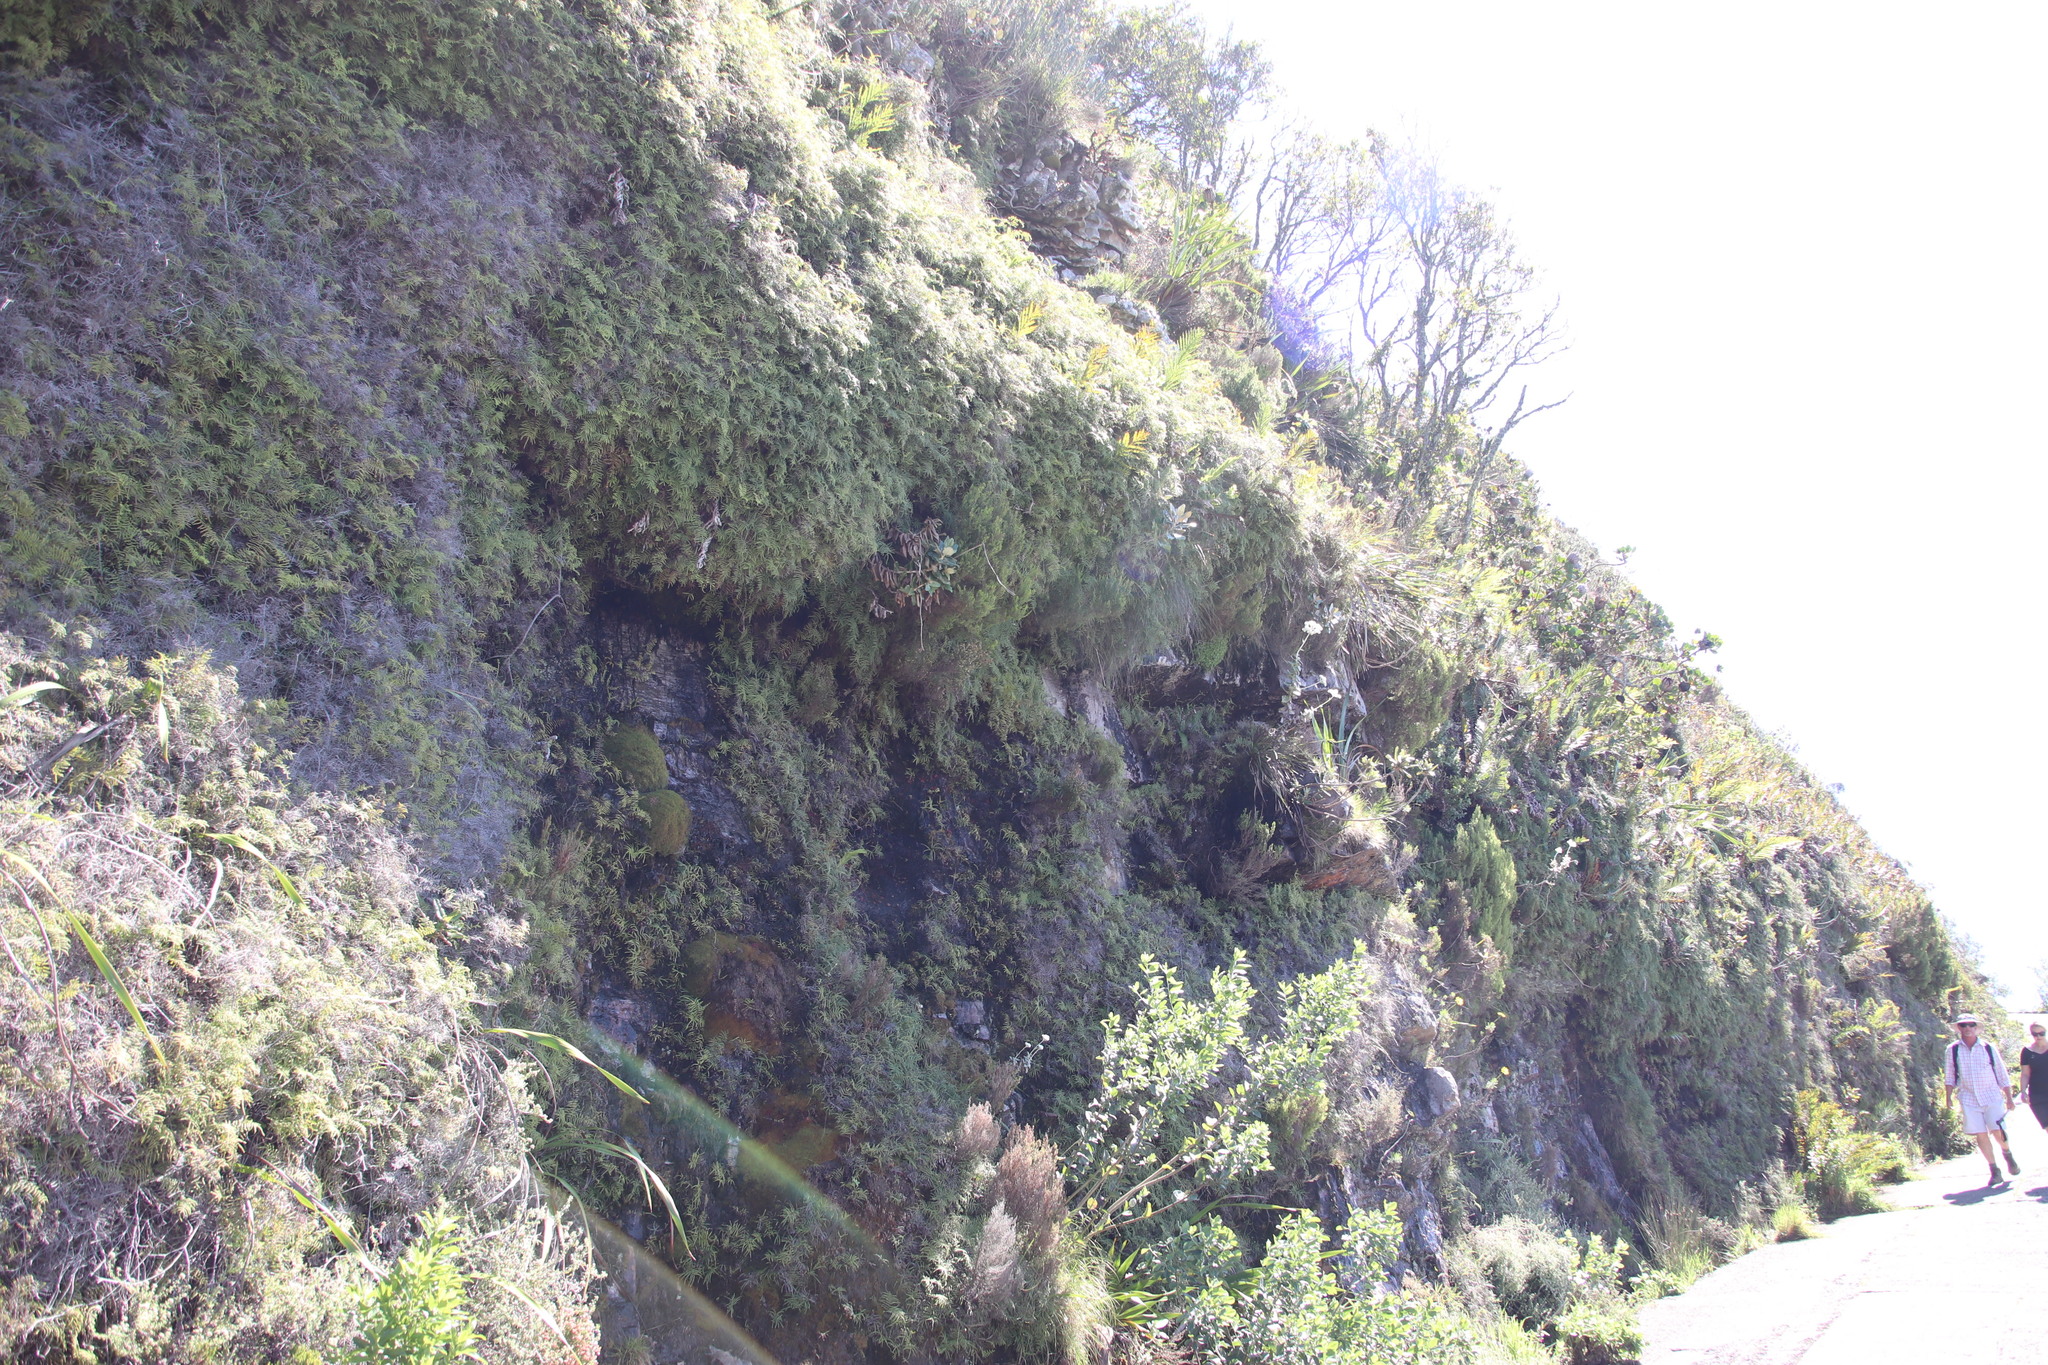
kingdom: Plantae
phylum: Tracheophyta
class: Polypodiopsida
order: Gleicheniales
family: Gleicheniaceae
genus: Gleichenia
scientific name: Gleichenia polypodioides
